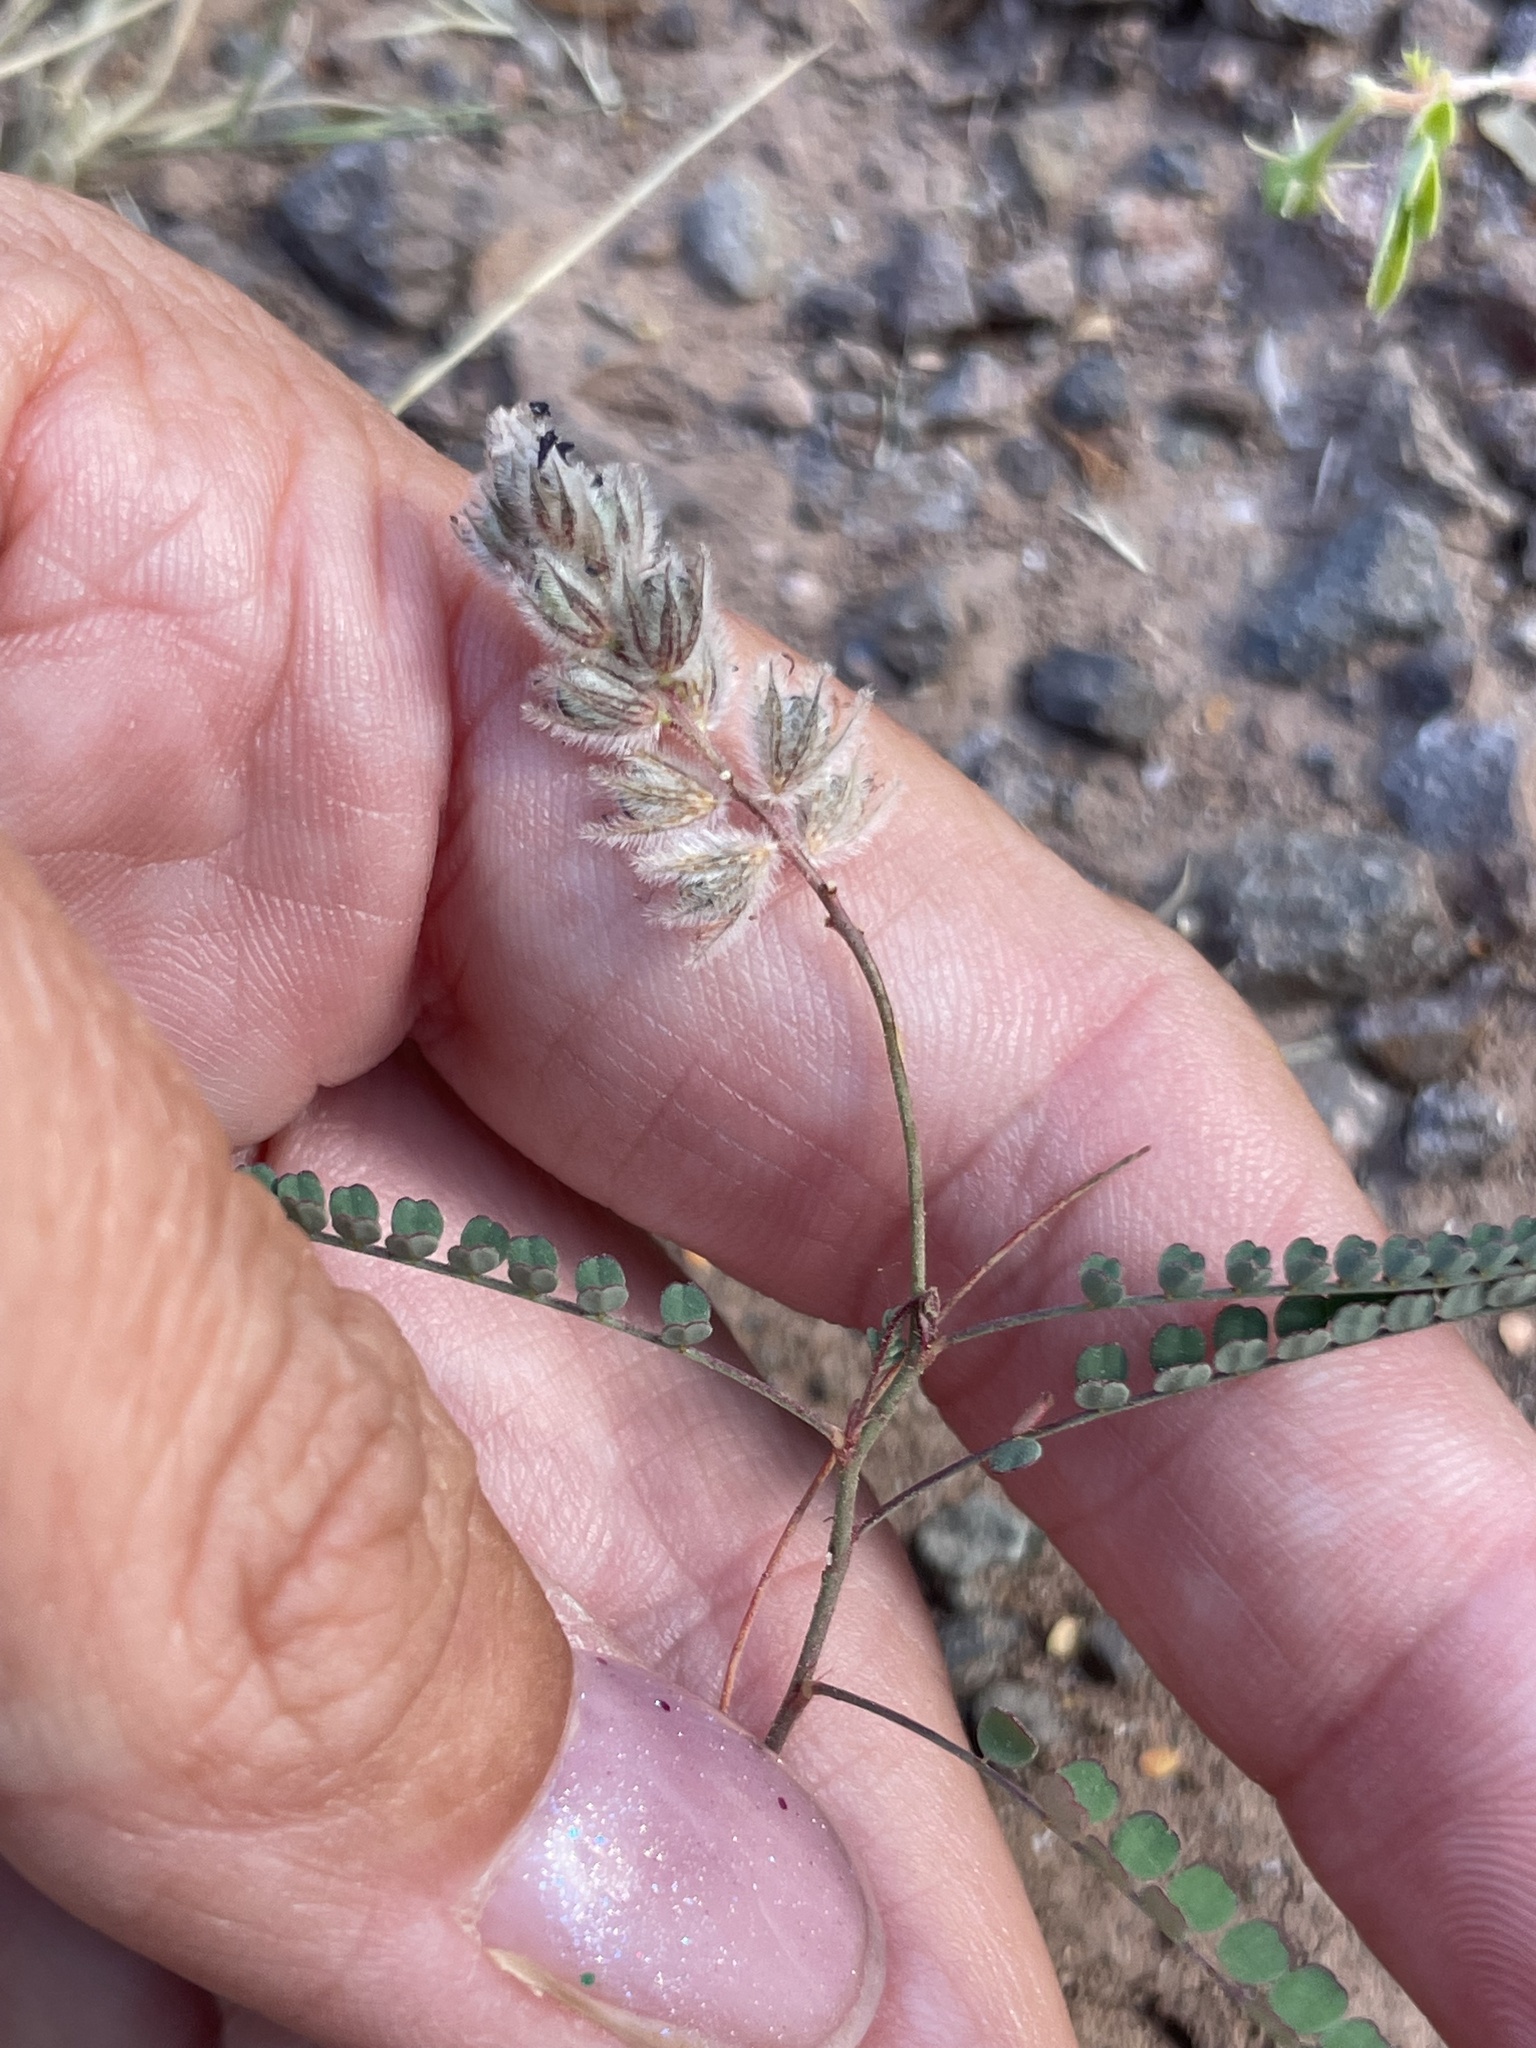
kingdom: Plantae
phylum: Tracheophyta
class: Magnoliopsida
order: Fabales
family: Fabaceae
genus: Marina
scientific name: Marina vetula
